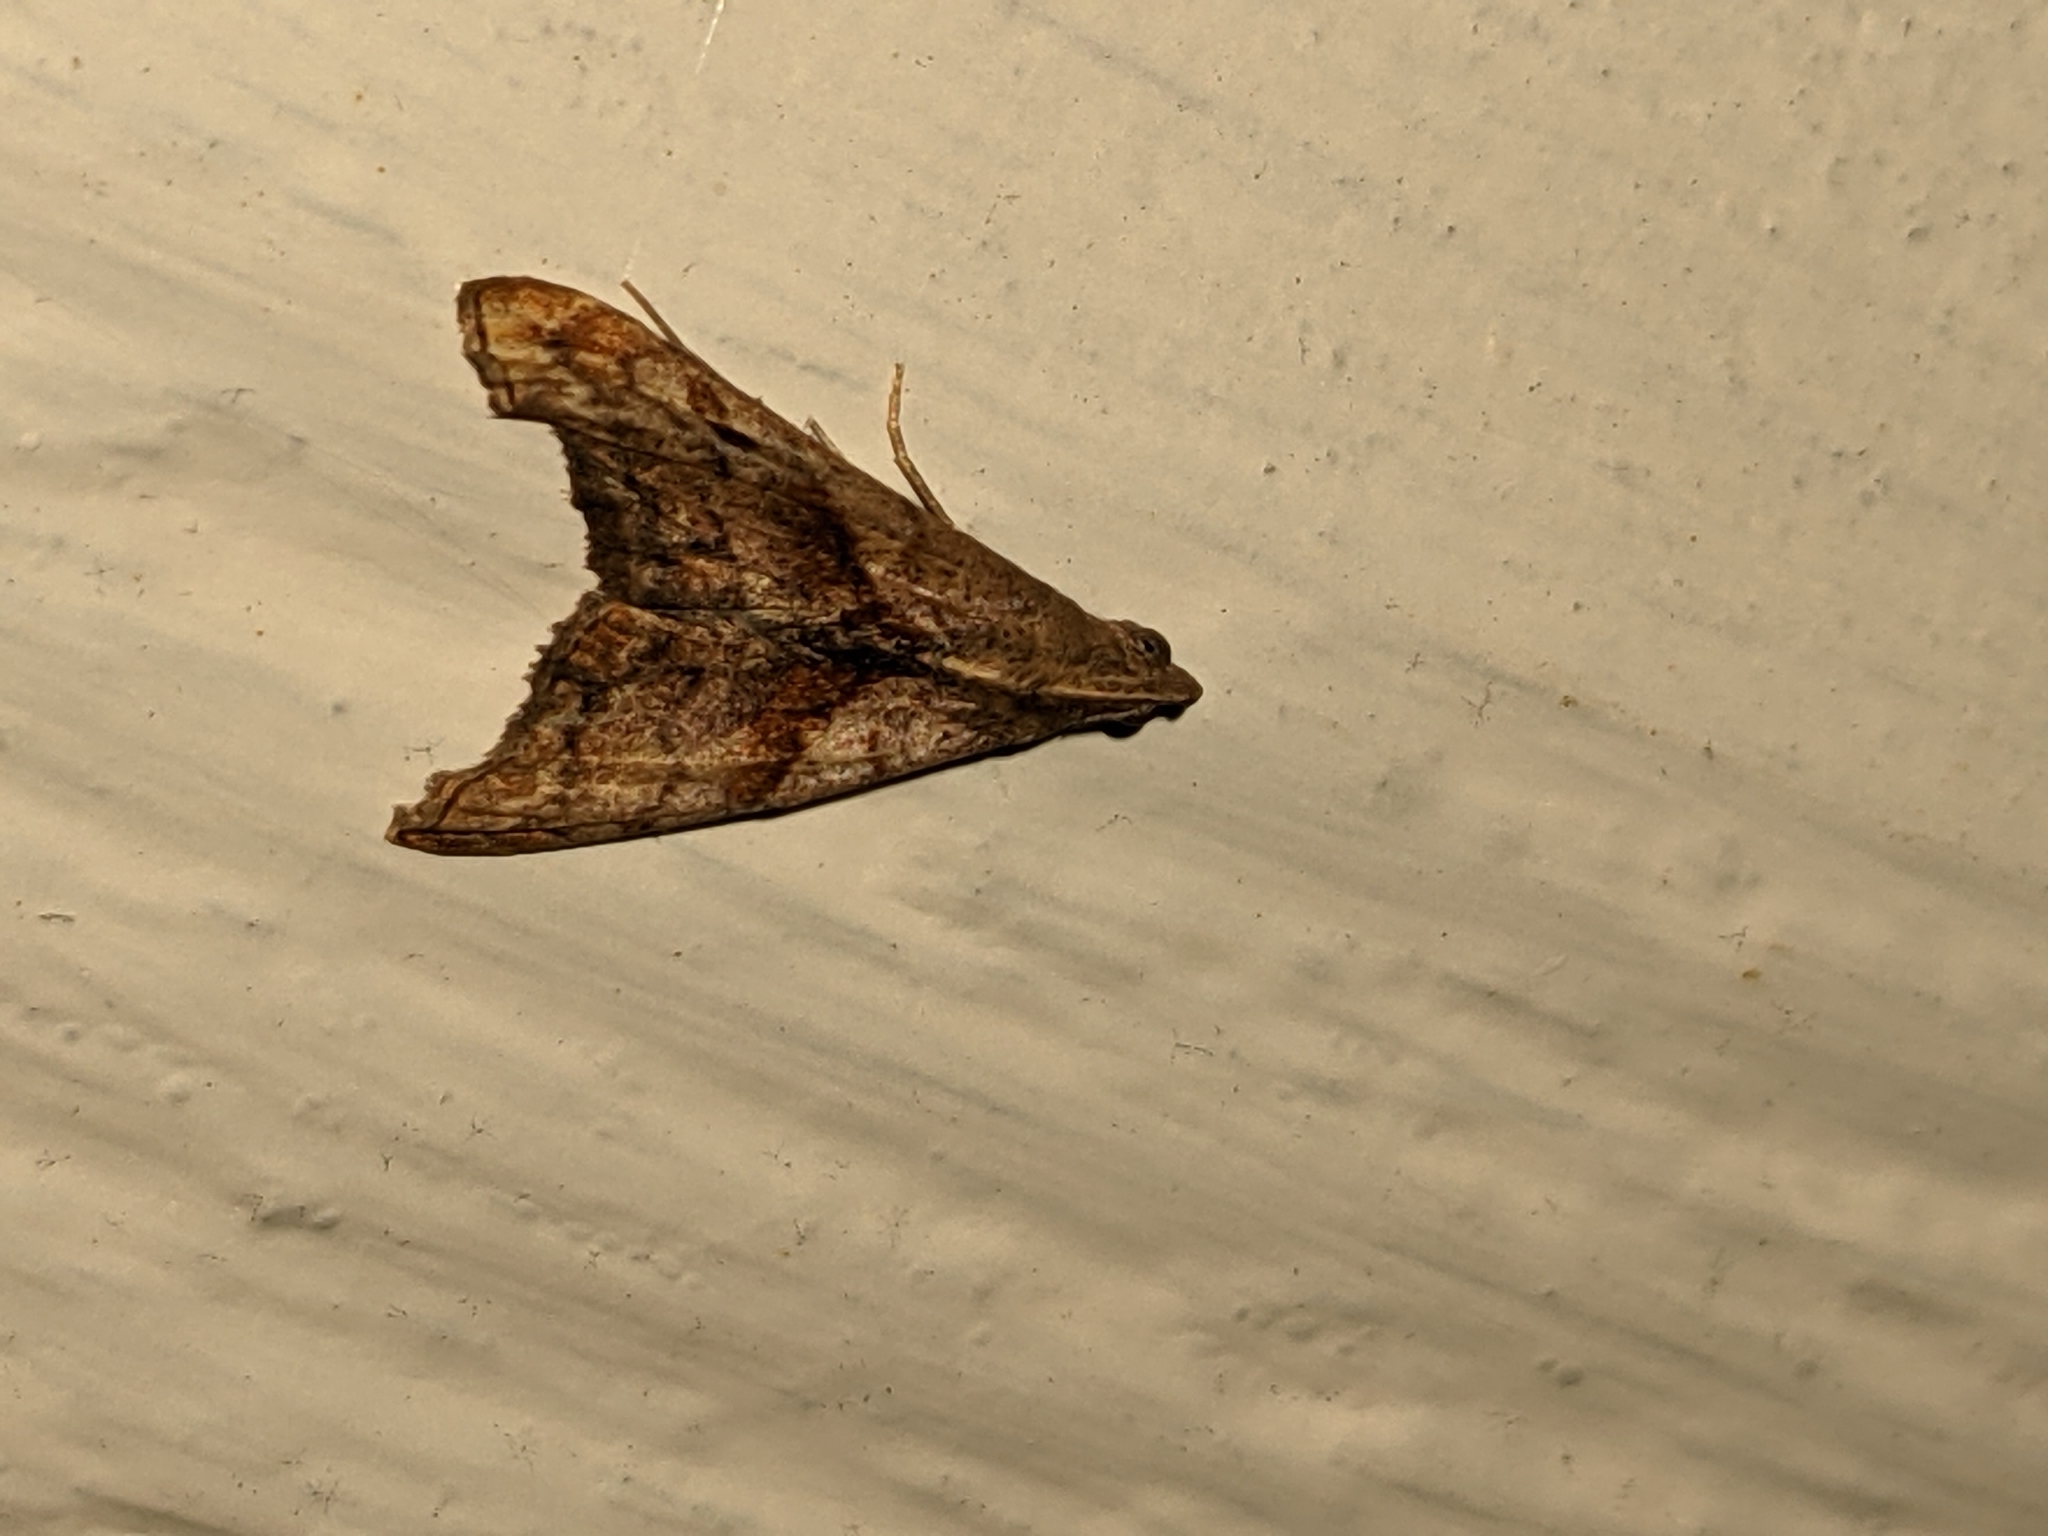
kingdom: Animalia
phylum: Arthropoda
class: Insecta
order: Lepidoptera
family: Erebidae
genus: Palthis
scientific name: Palthis angulalis
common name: Dark-spotted palthis moth
